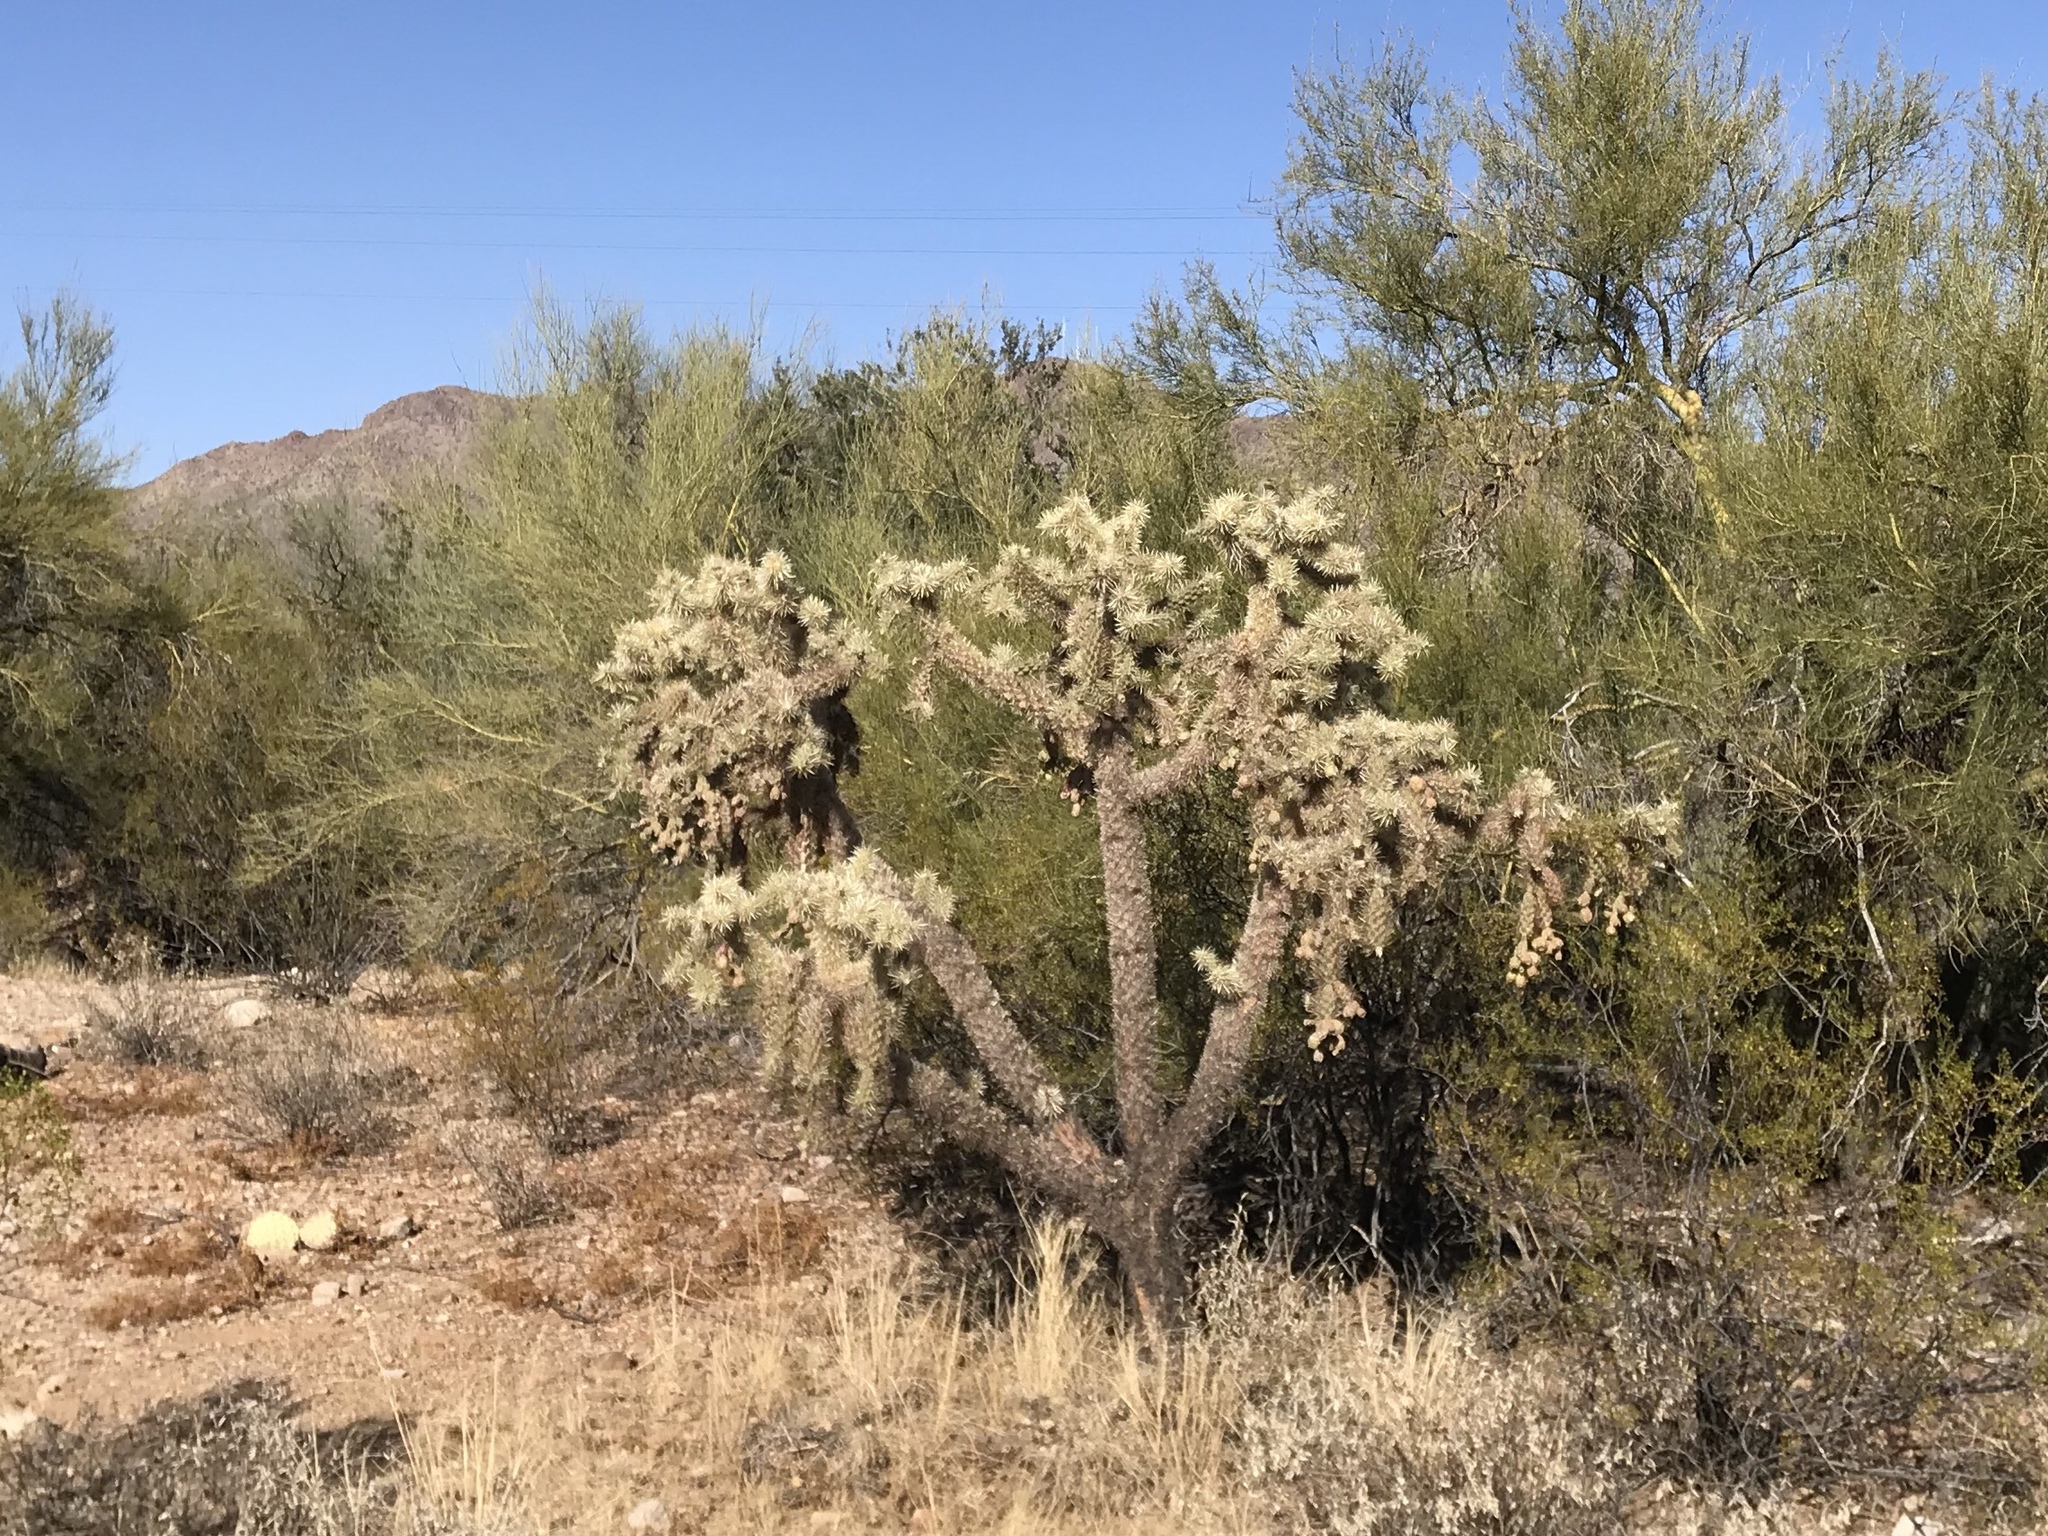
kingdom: Plantae
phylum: Tracheophyta
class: Magnoliopsida
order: Caryophyllales
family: Cactaceae
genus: Cylindropuntia
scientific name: Cylindropuntia fulgida
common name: Jumping cholla
